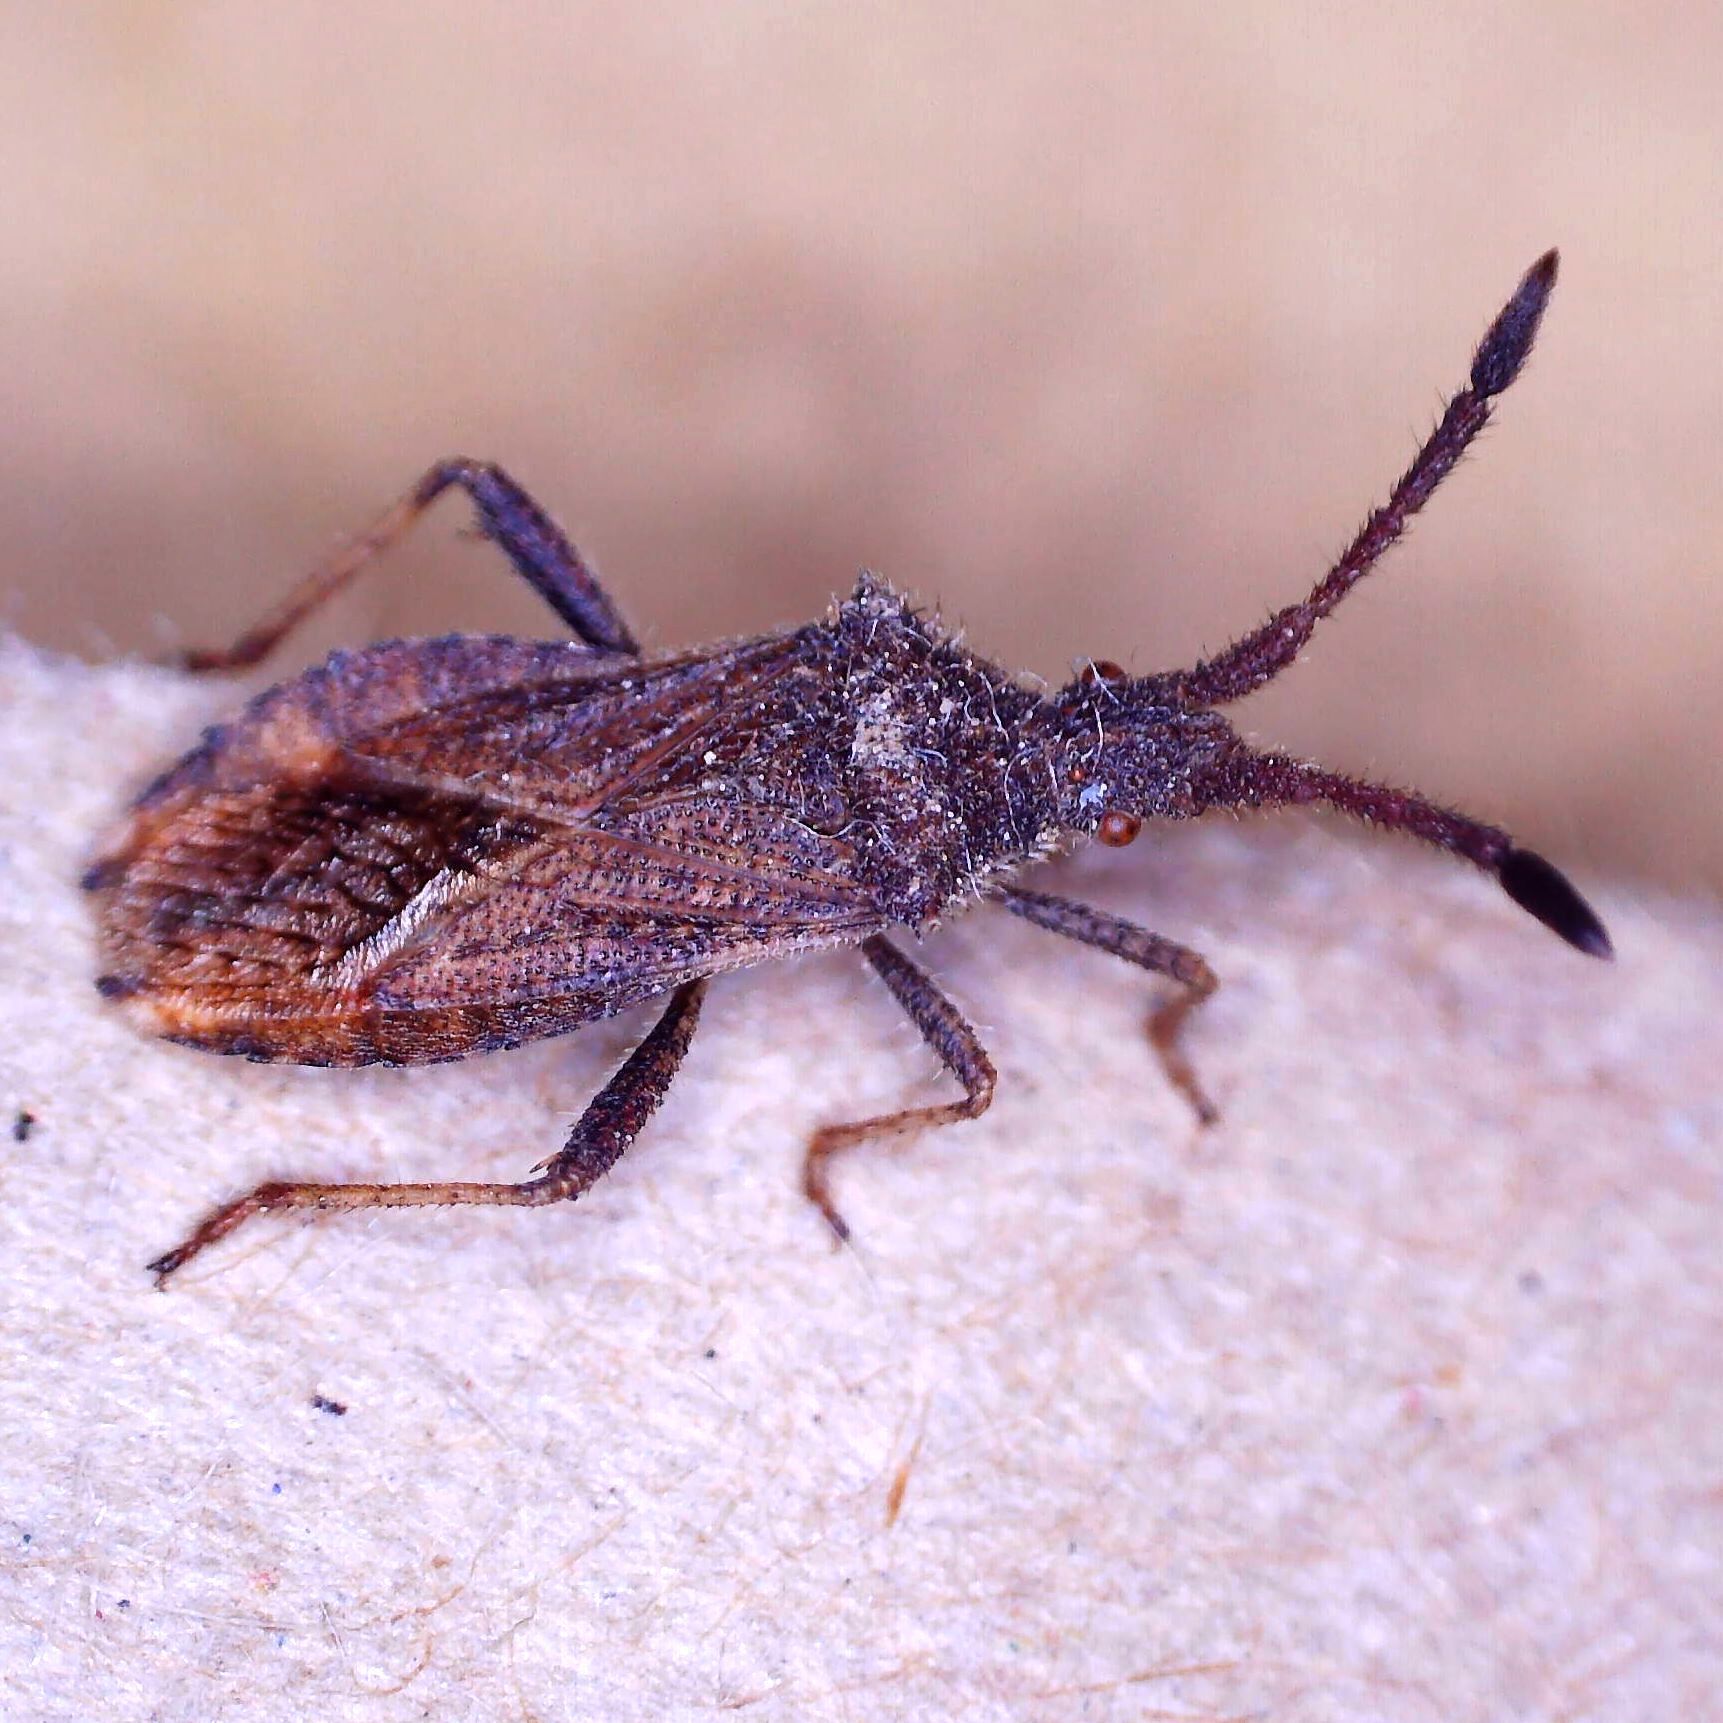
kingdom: Animalia
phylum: Arthropoda
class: Insecta
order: Hemiptera
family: Coreidae
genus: Coriomeris
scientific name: Coriomeris denticulatus
